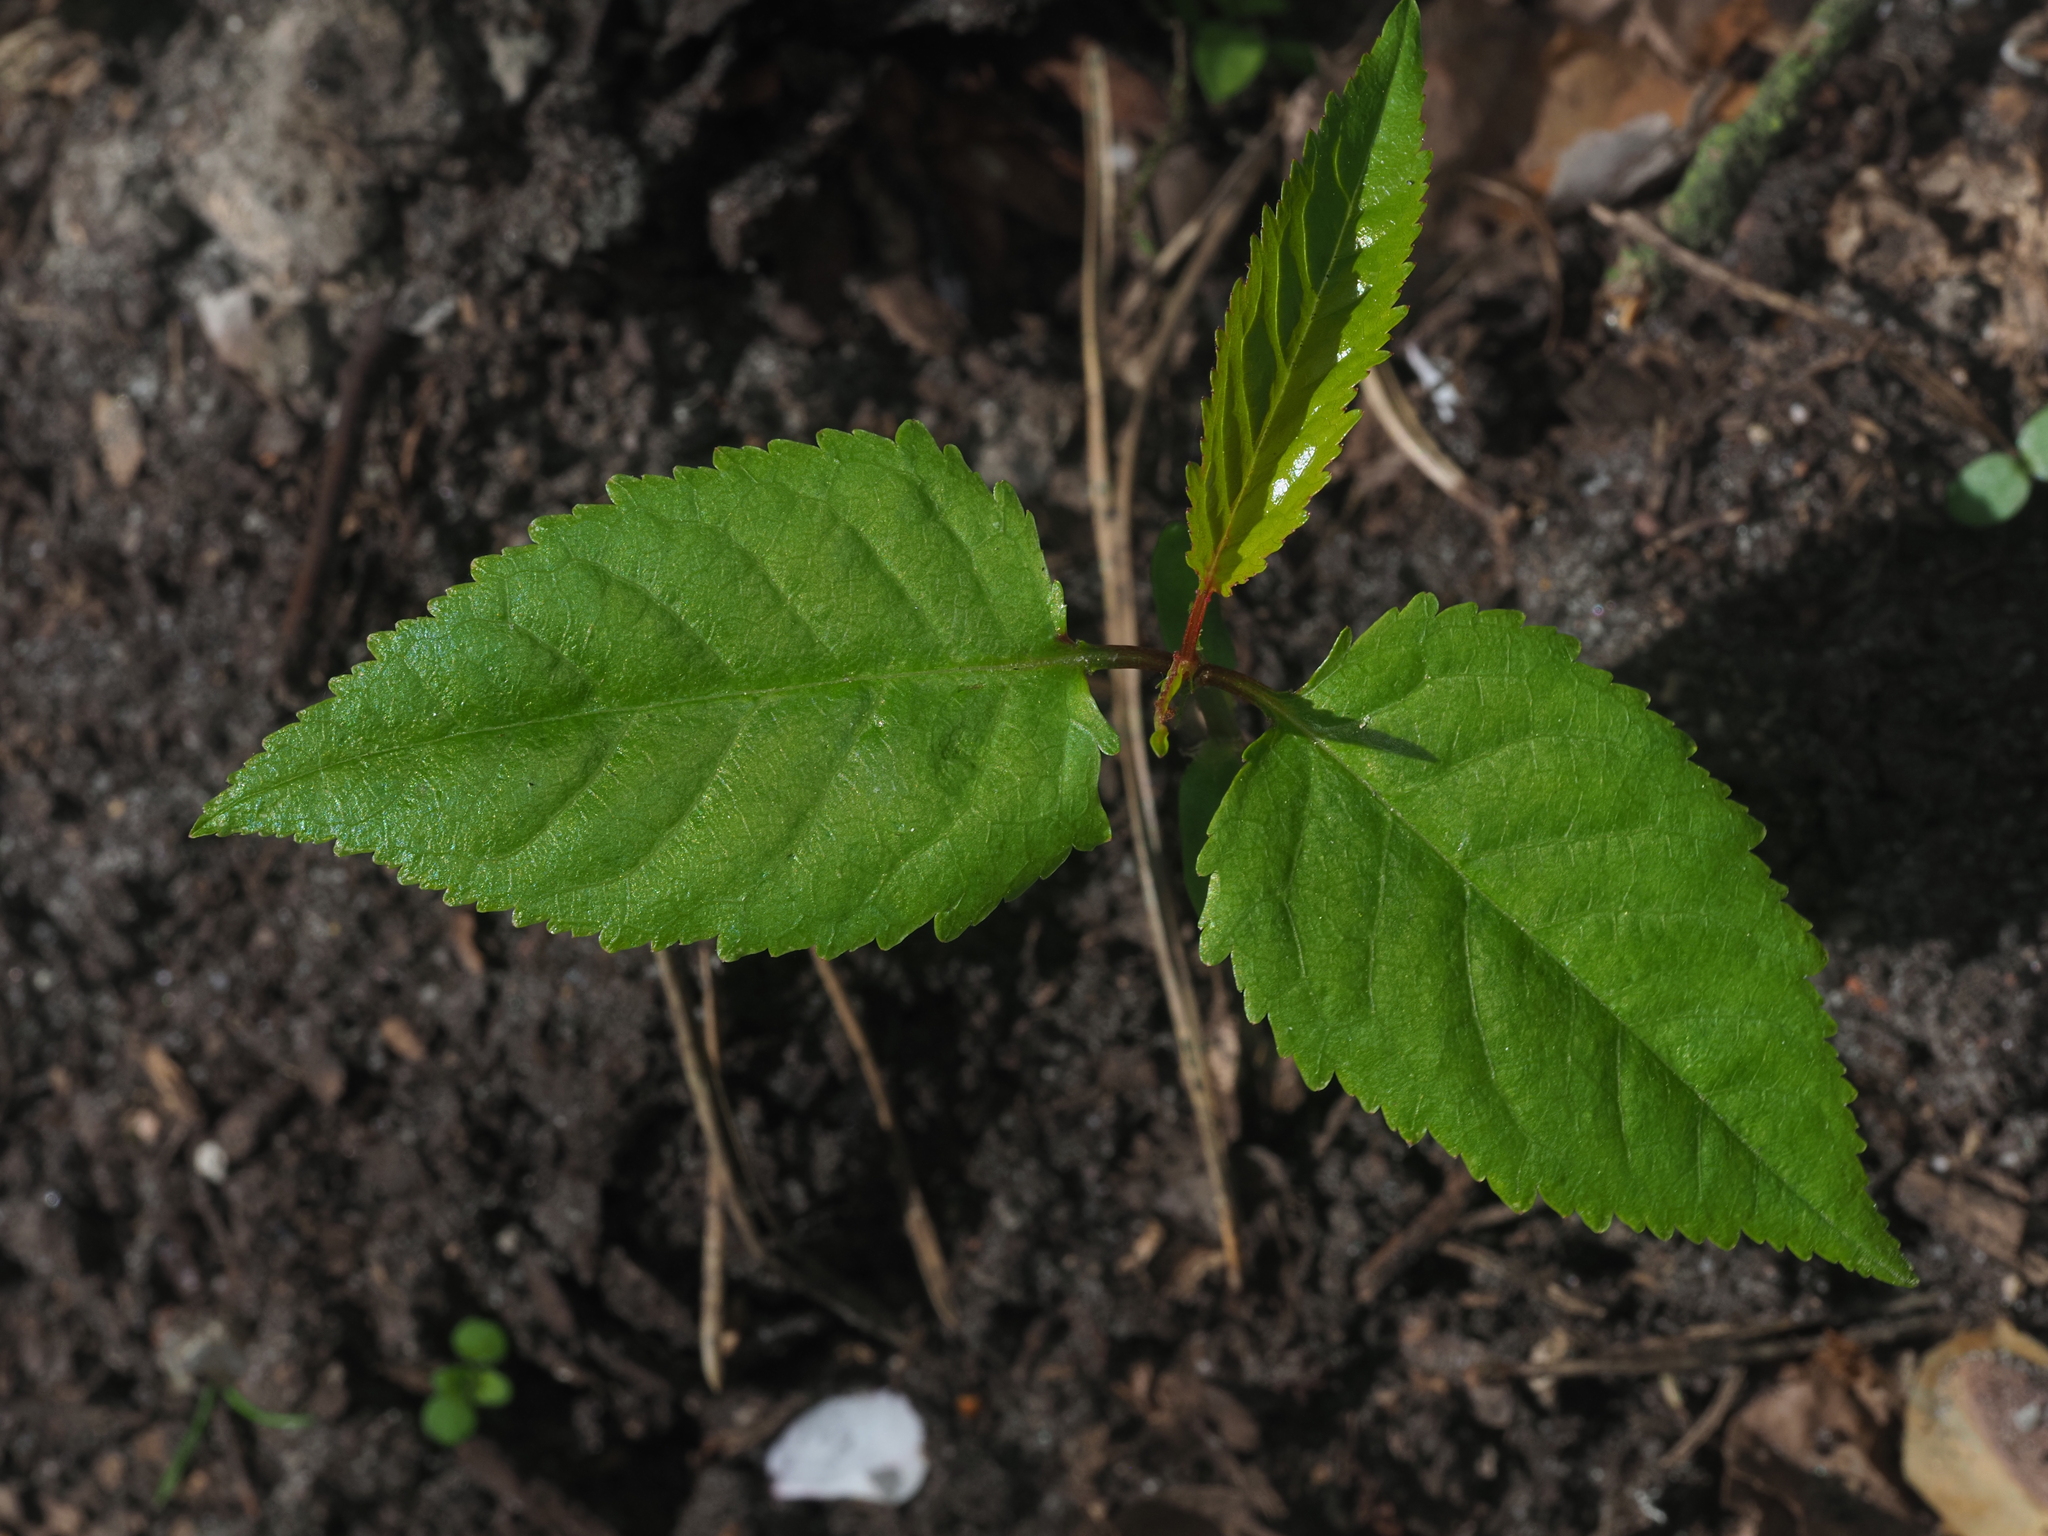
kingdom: Plantae
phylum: Tracheophyta
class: Magnoliopsida
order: Rosales
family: Rosaceae
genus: Prunus
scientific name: Prunus avium
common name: Sweet cherry
